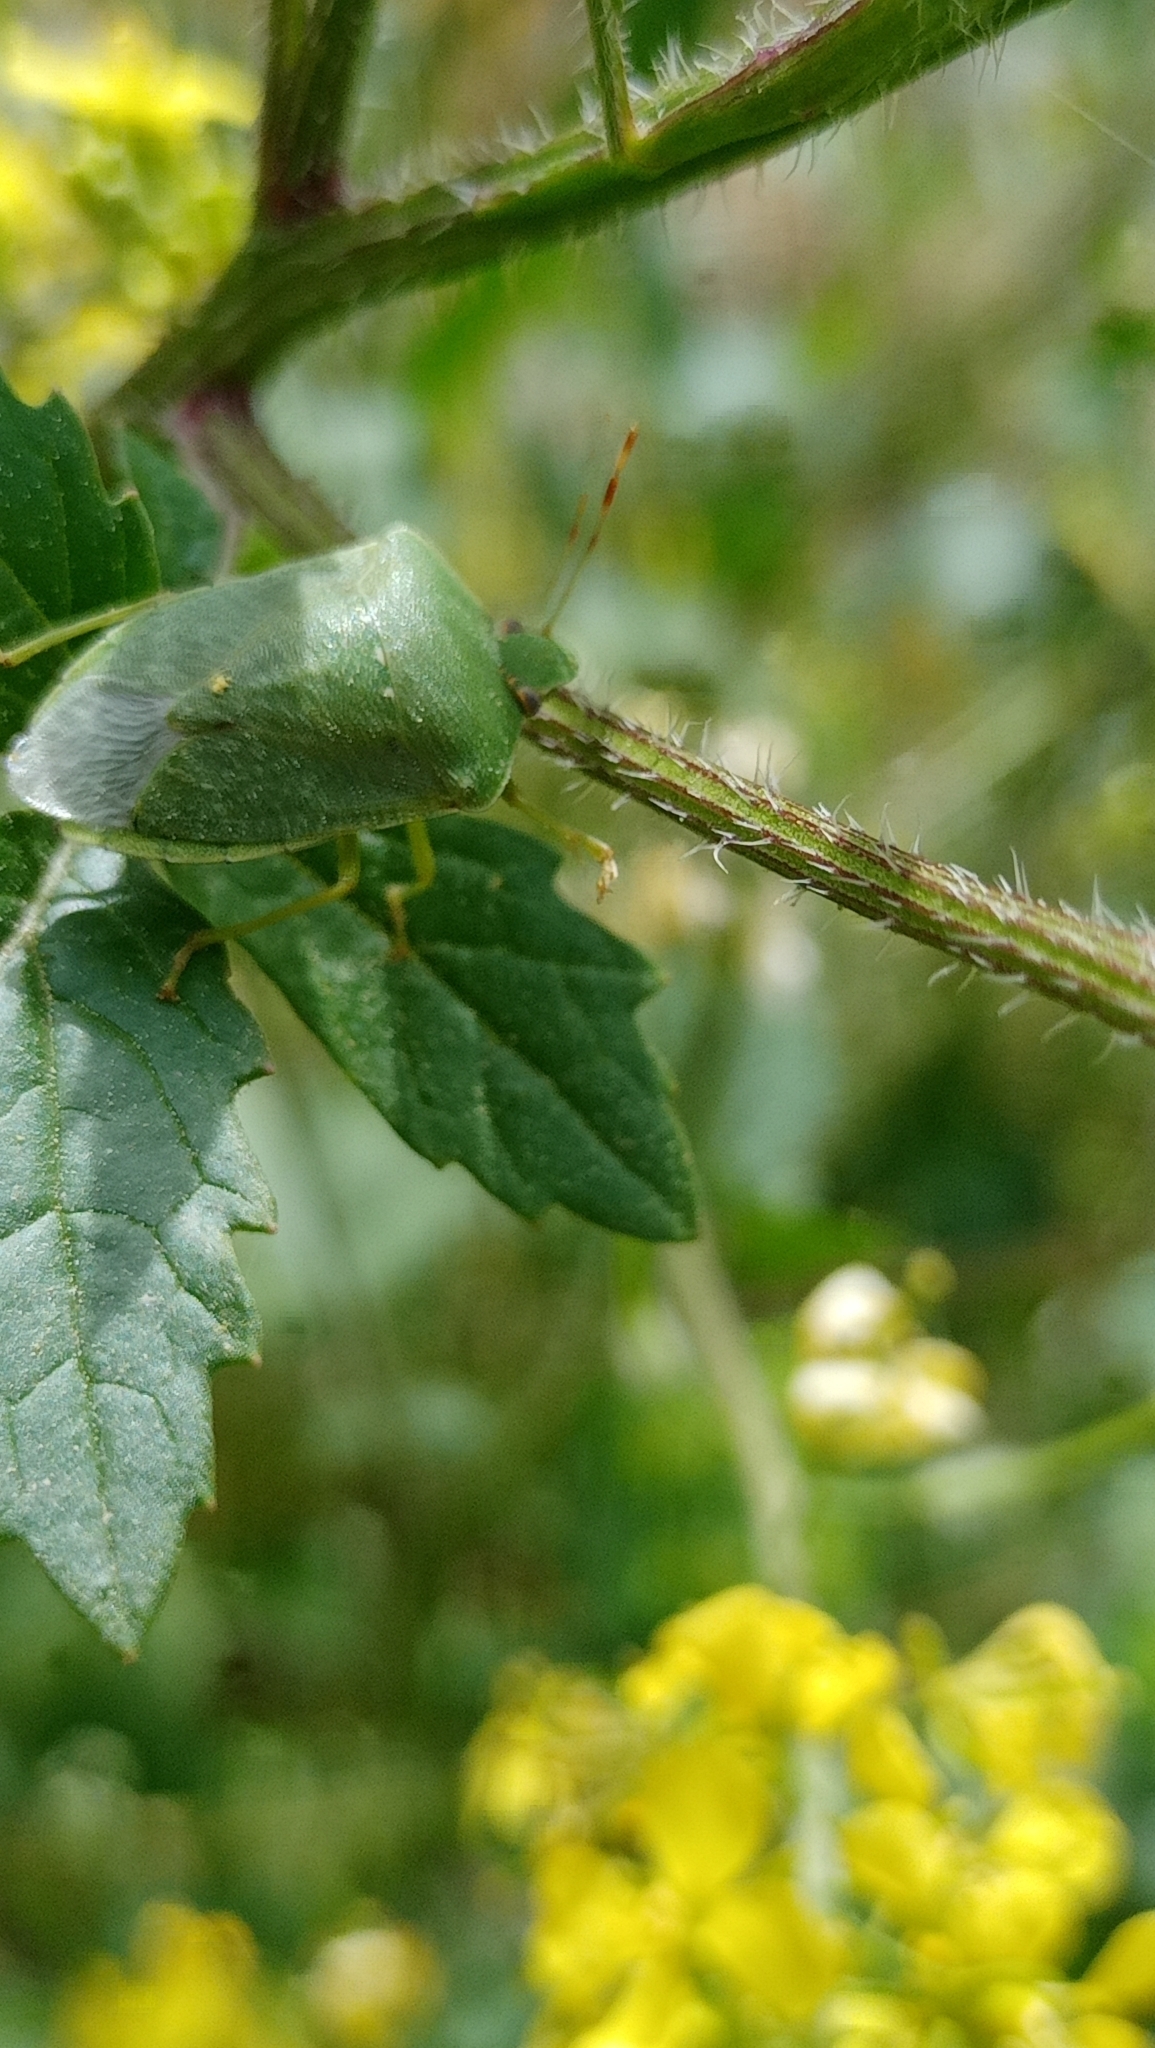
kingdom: Animalia
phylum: Arthropoda
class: Insecta
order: Hemiptera
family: Pentatomidae
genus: Nezara
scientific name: Nezara viridula
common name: Southern green stink bug
